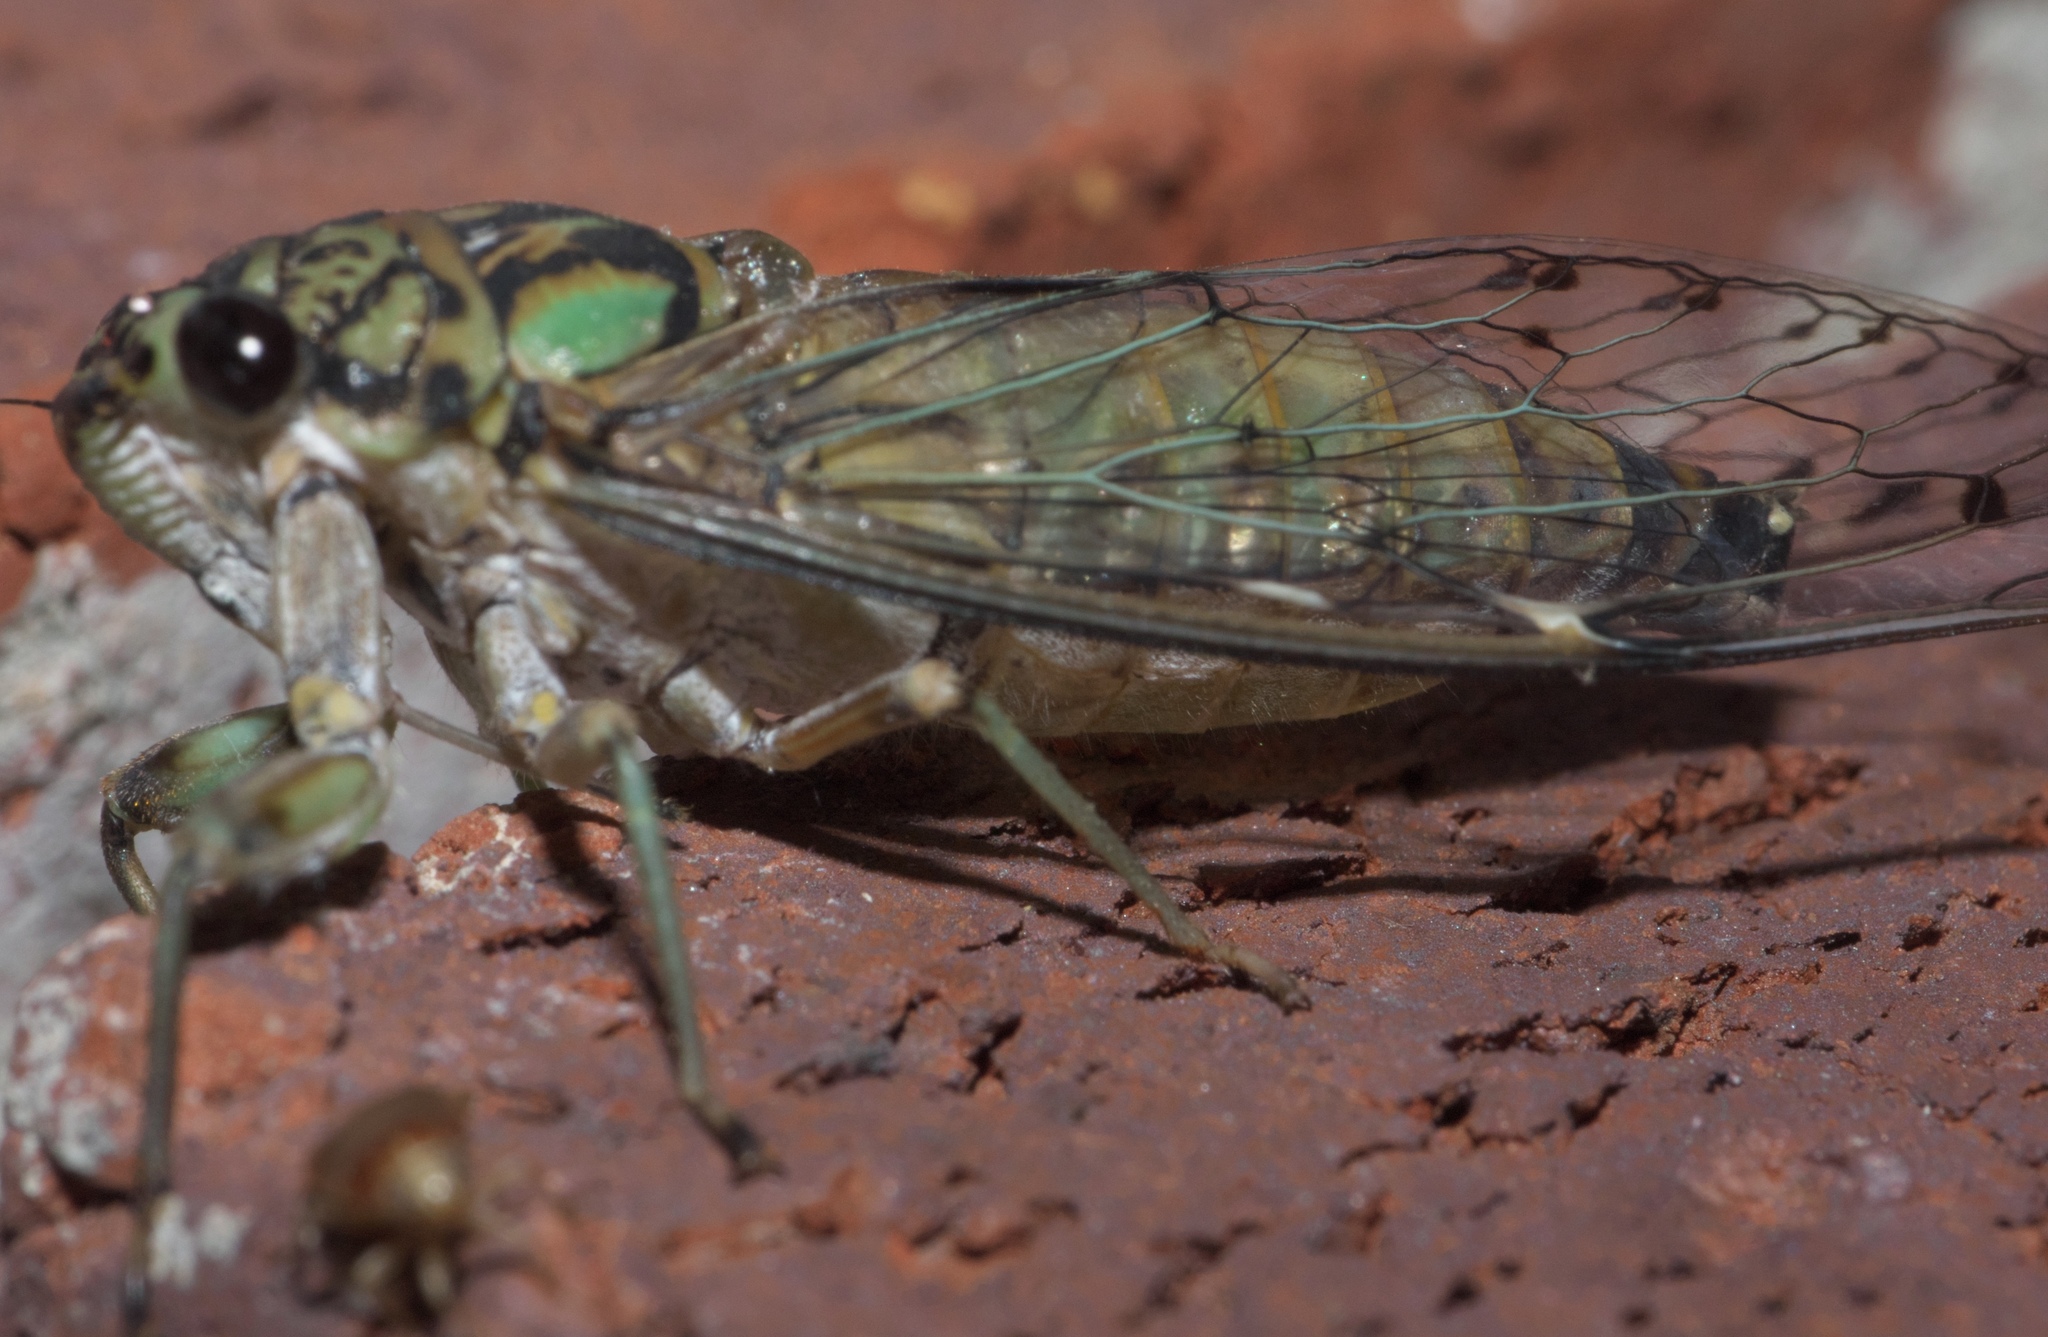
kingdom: Animalia
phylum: Arthropoda
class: Insecta
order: Hemiptera
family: Cicadidae
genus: Neocicada
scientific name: Neocicada hieroglyphica
